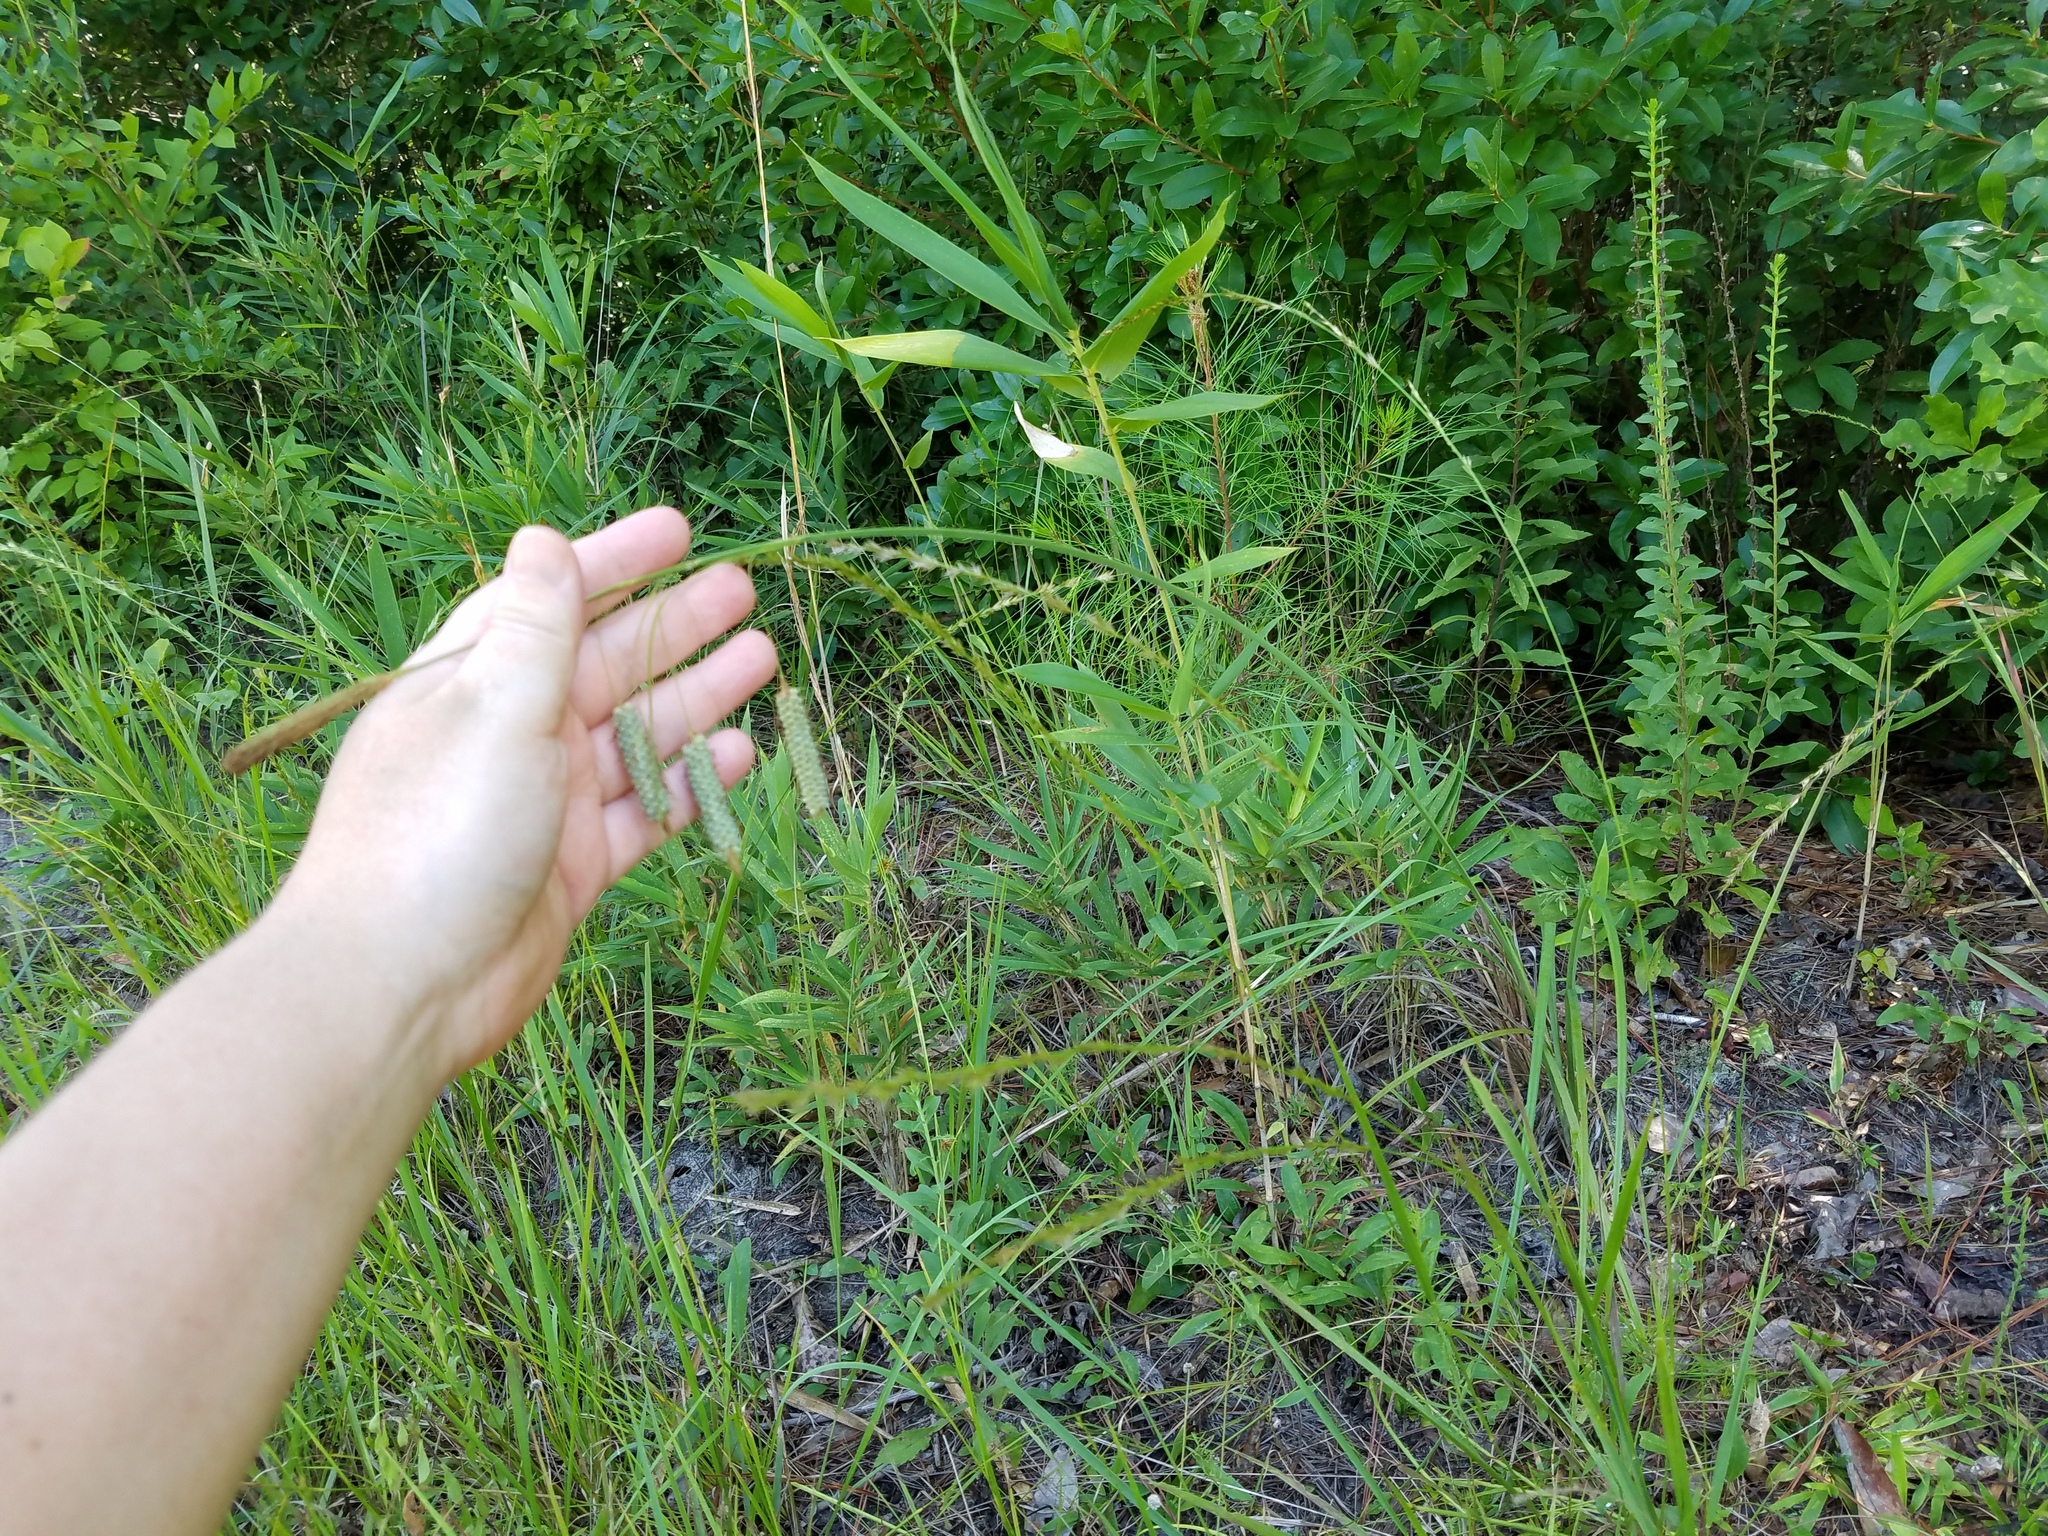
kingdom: Plantae
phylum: Tracheophyta
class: Liliopsida
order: Poales
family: Cyperaceae
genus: Carex
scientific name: Carex glaucescens
